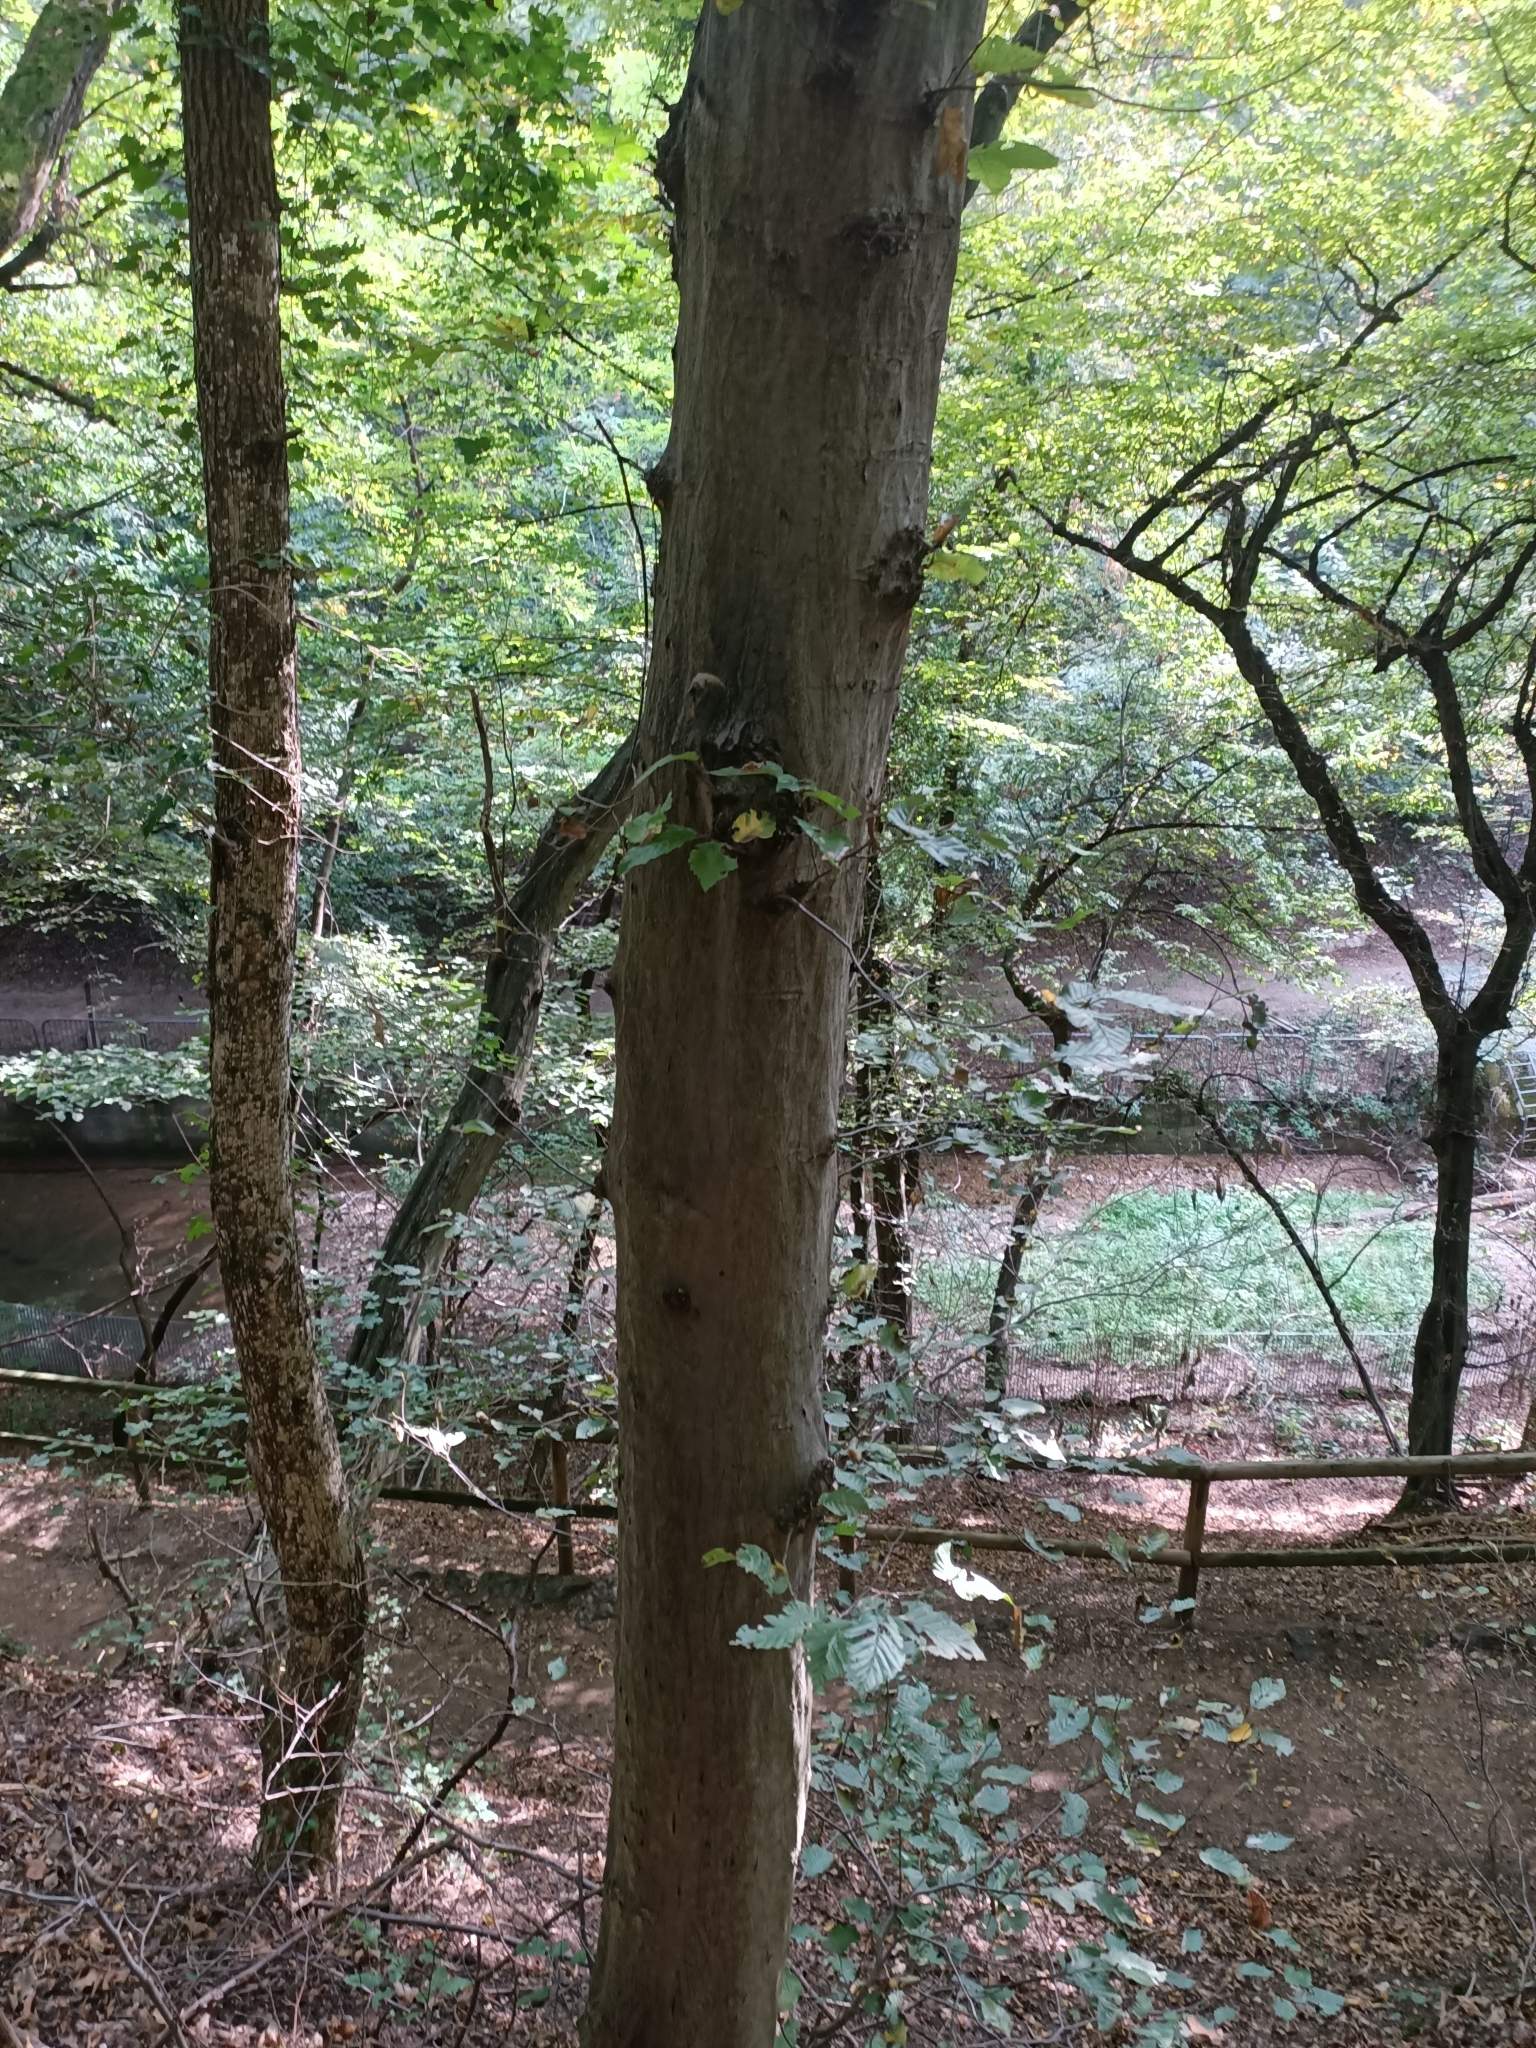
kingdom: Plantae
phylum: Tracheophyta
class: Magnoliopsida
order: Fagales
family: Betulaceae
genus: Carpinus
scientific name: Carpinus betulus
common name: Hornbeam
